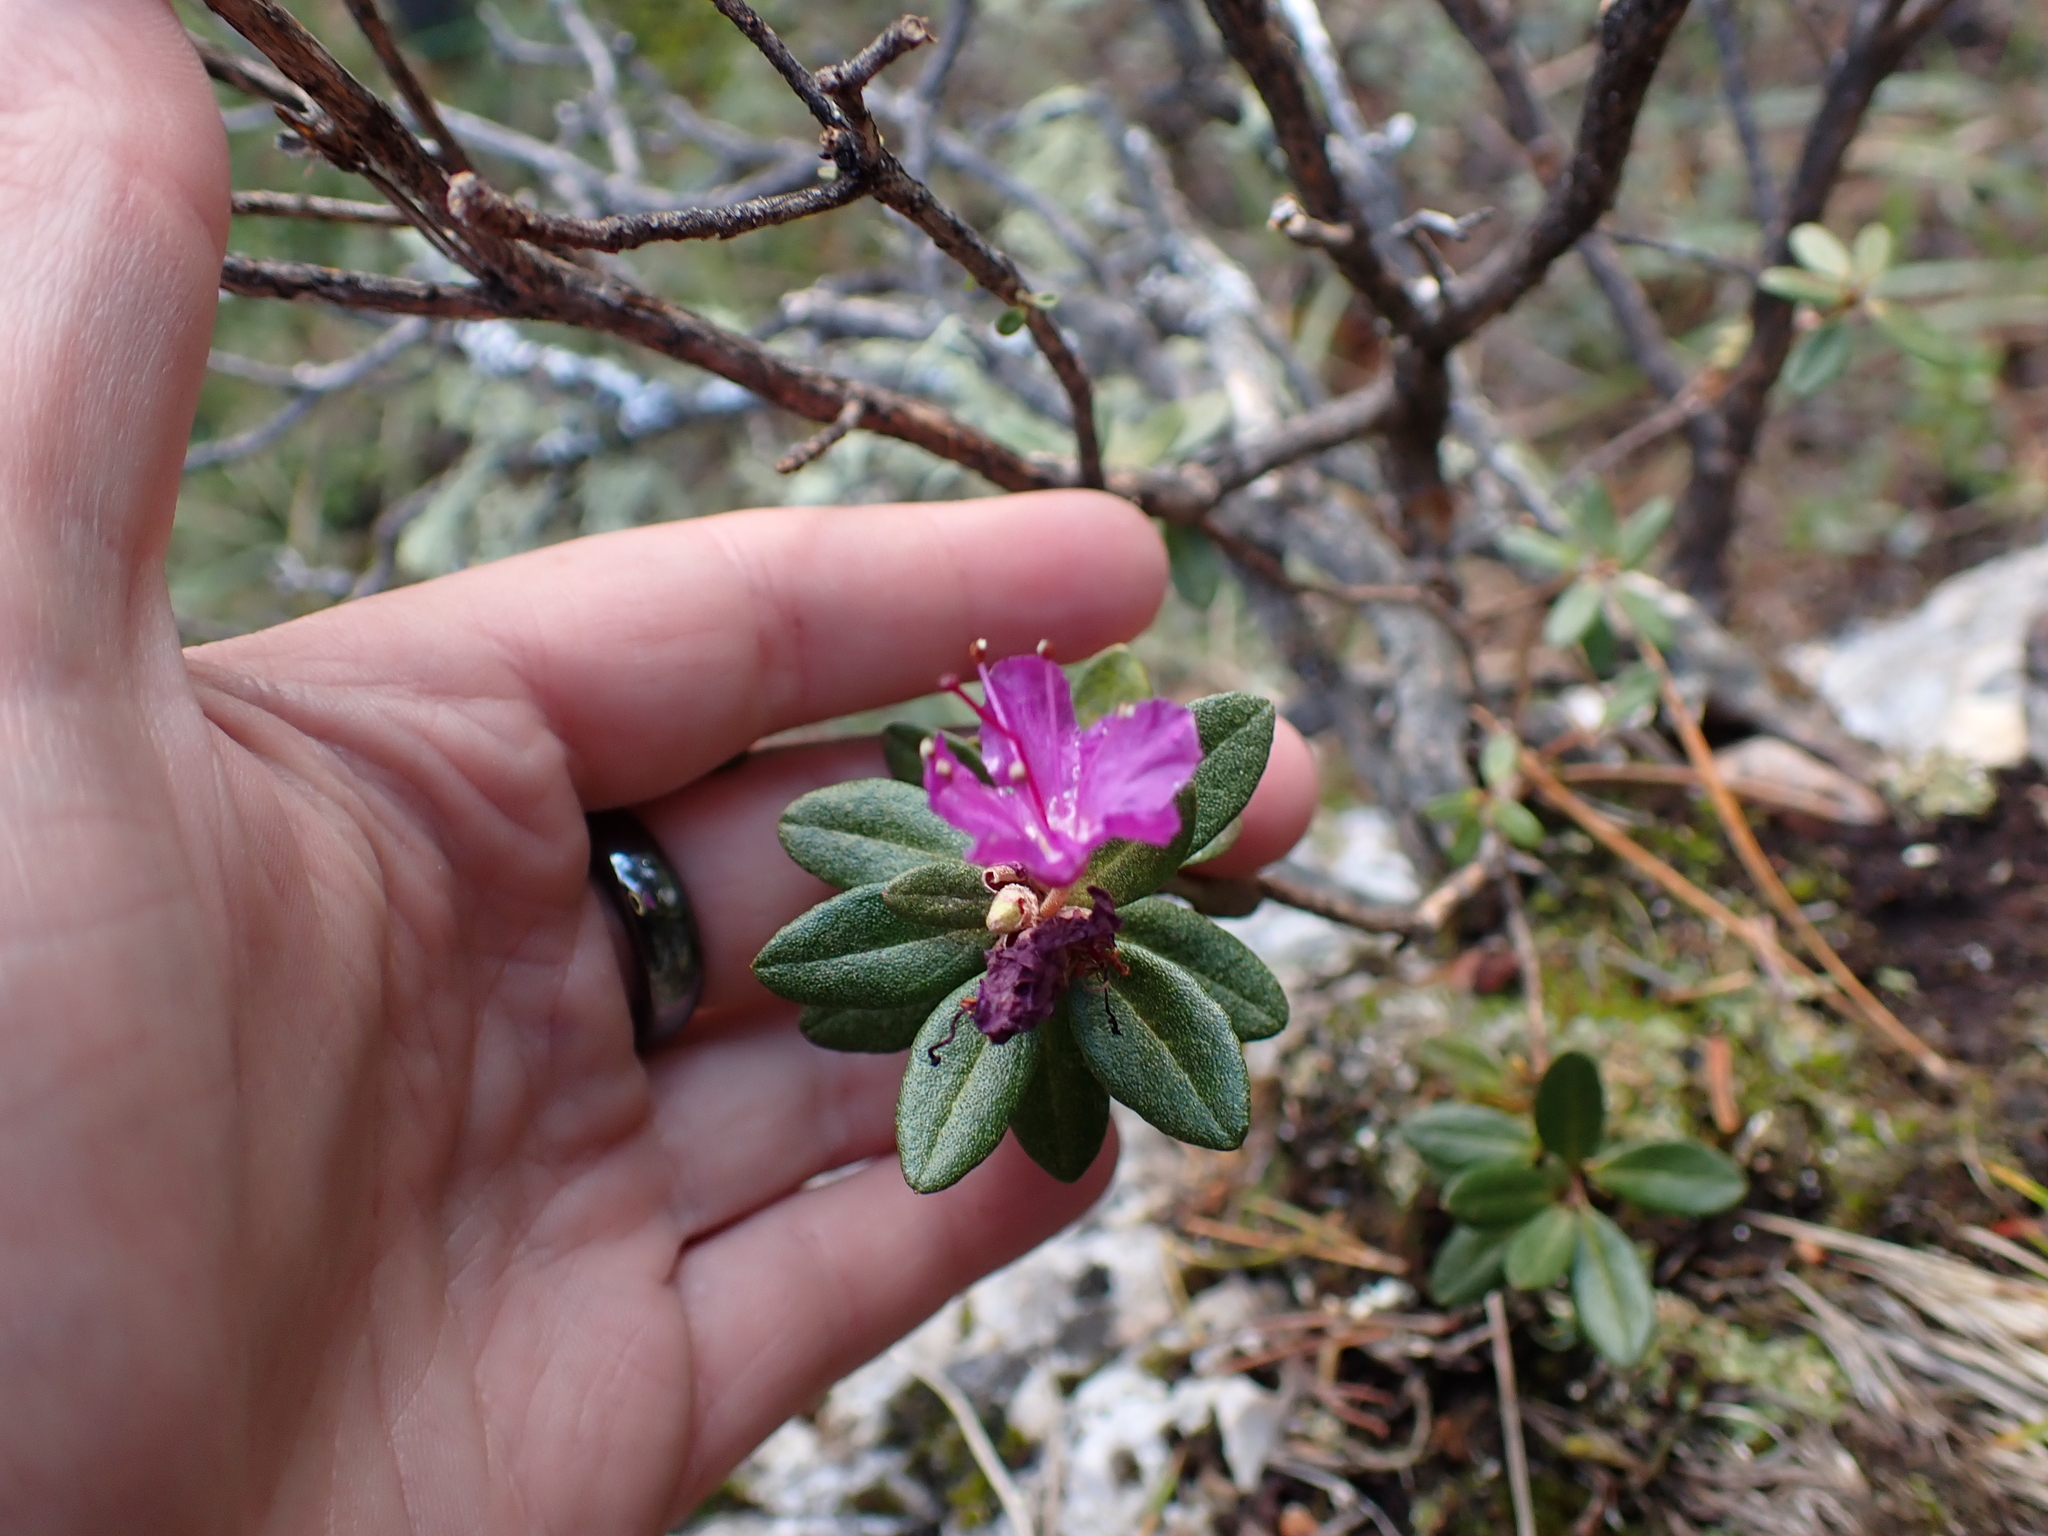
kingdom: Plantae
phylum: Tracheophyta
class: Magnoliopsida
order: Ericales
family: Ericaceae
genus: Rhododendron
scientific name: Rhododendron lapponicum
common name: Lapland rhododendron
